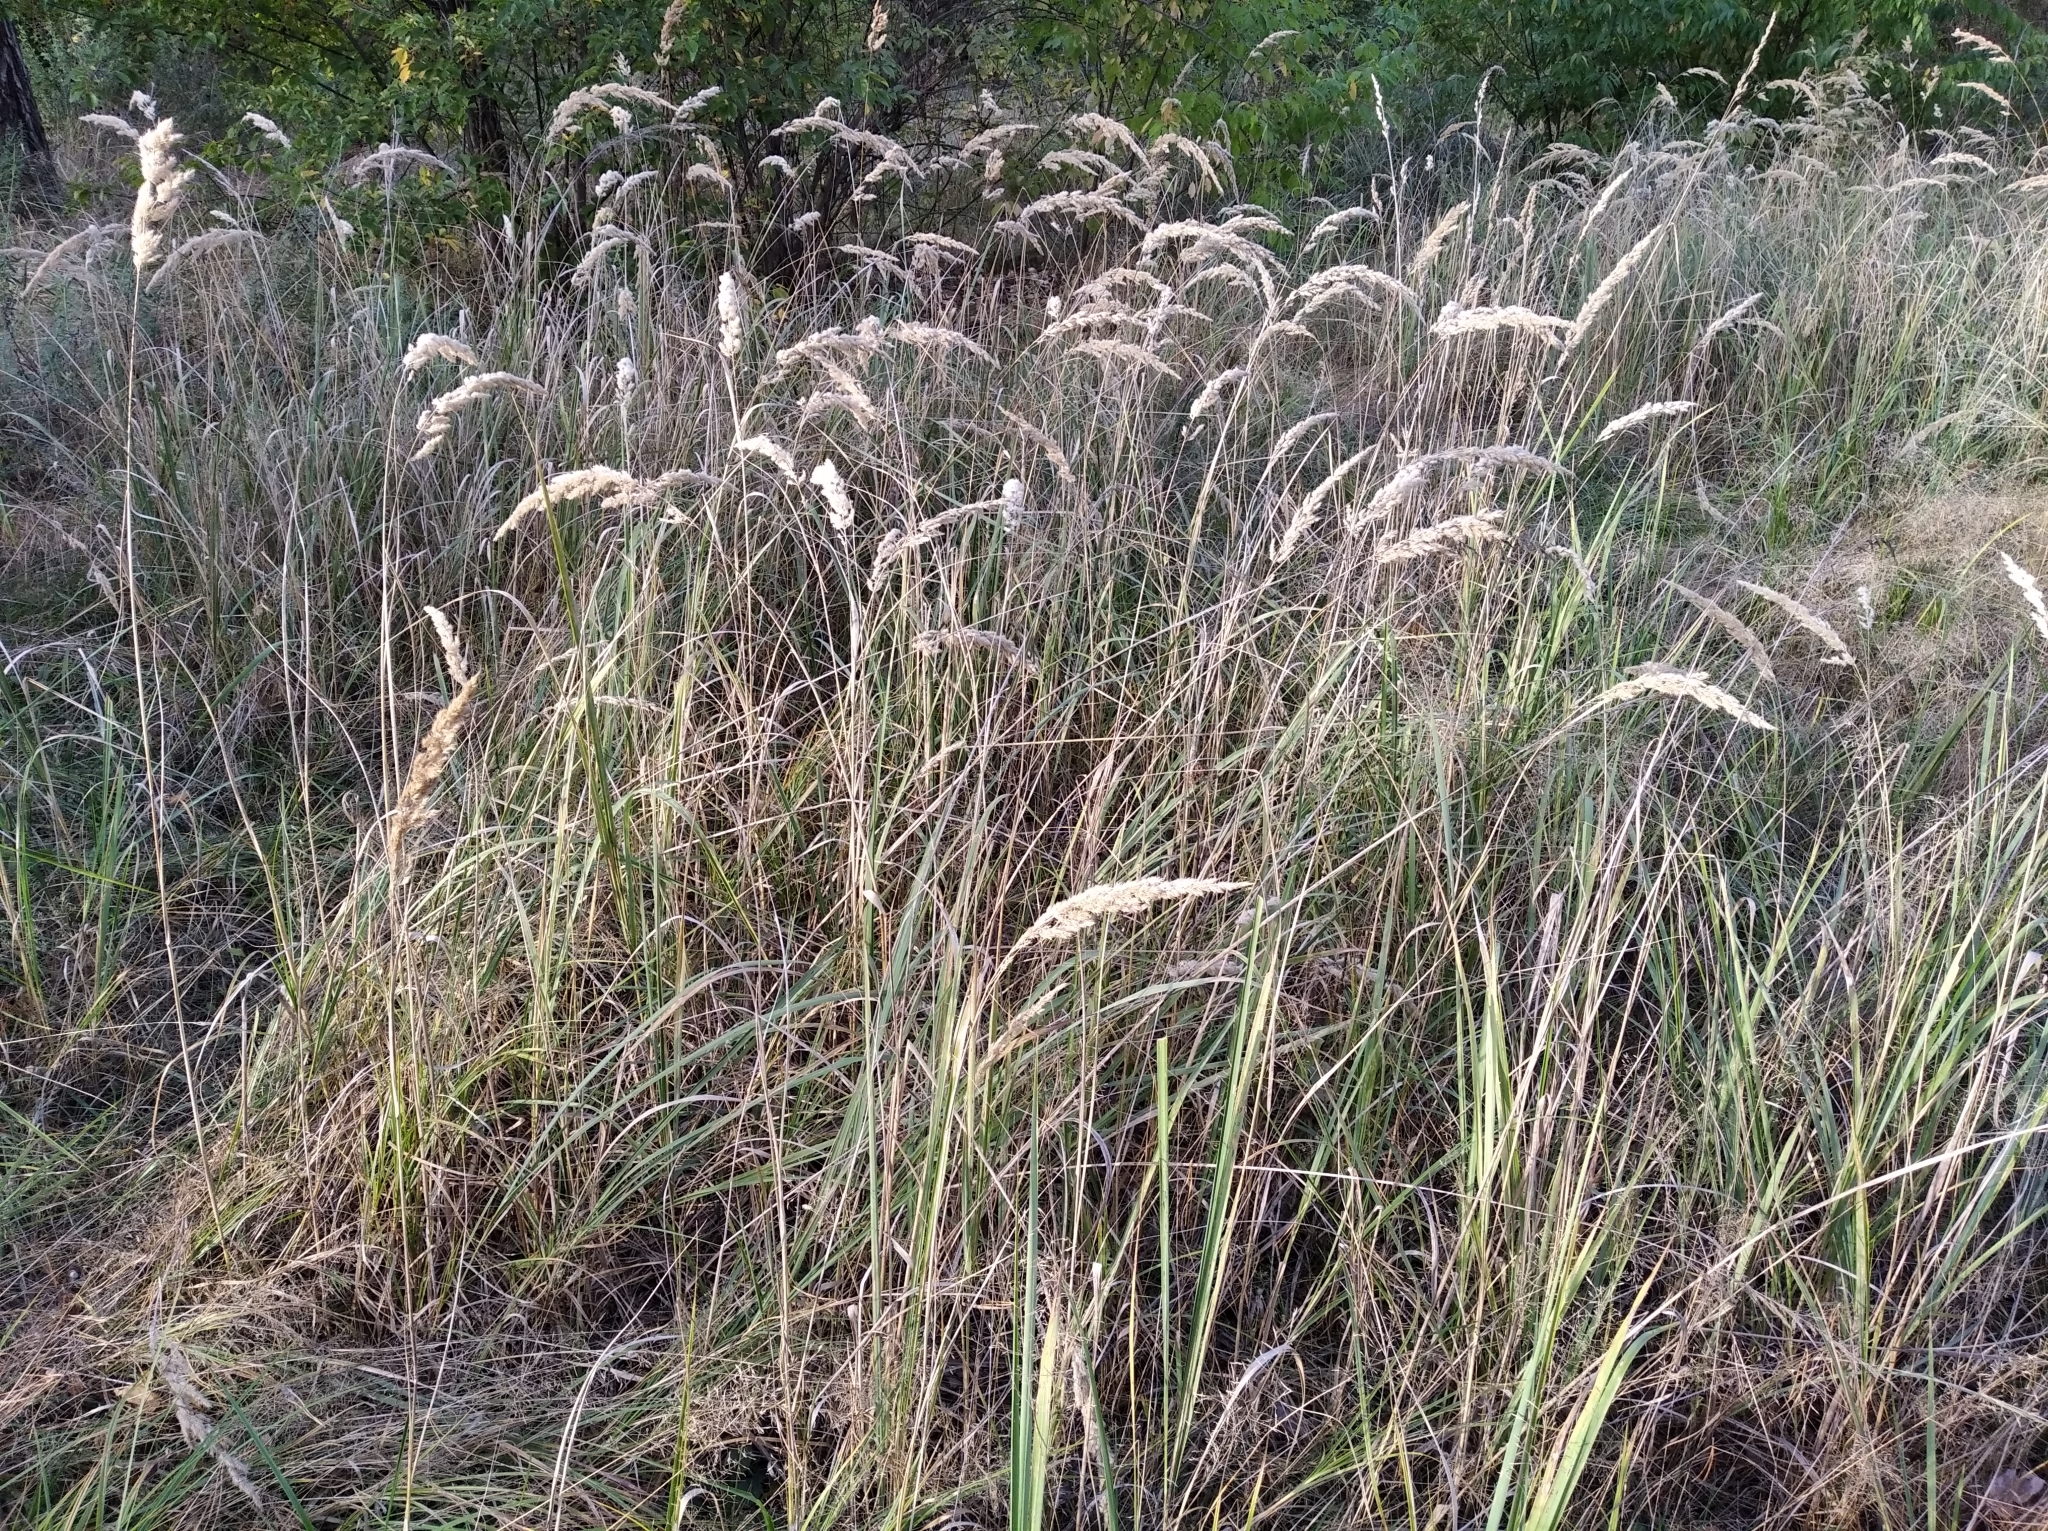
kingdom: Plantae
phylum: Tracheophyta
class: Liliopsida
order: Poales
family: Poaceae
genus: Calamagrostis
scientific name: Calamagrostis epigejos
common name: Wood small-reed
